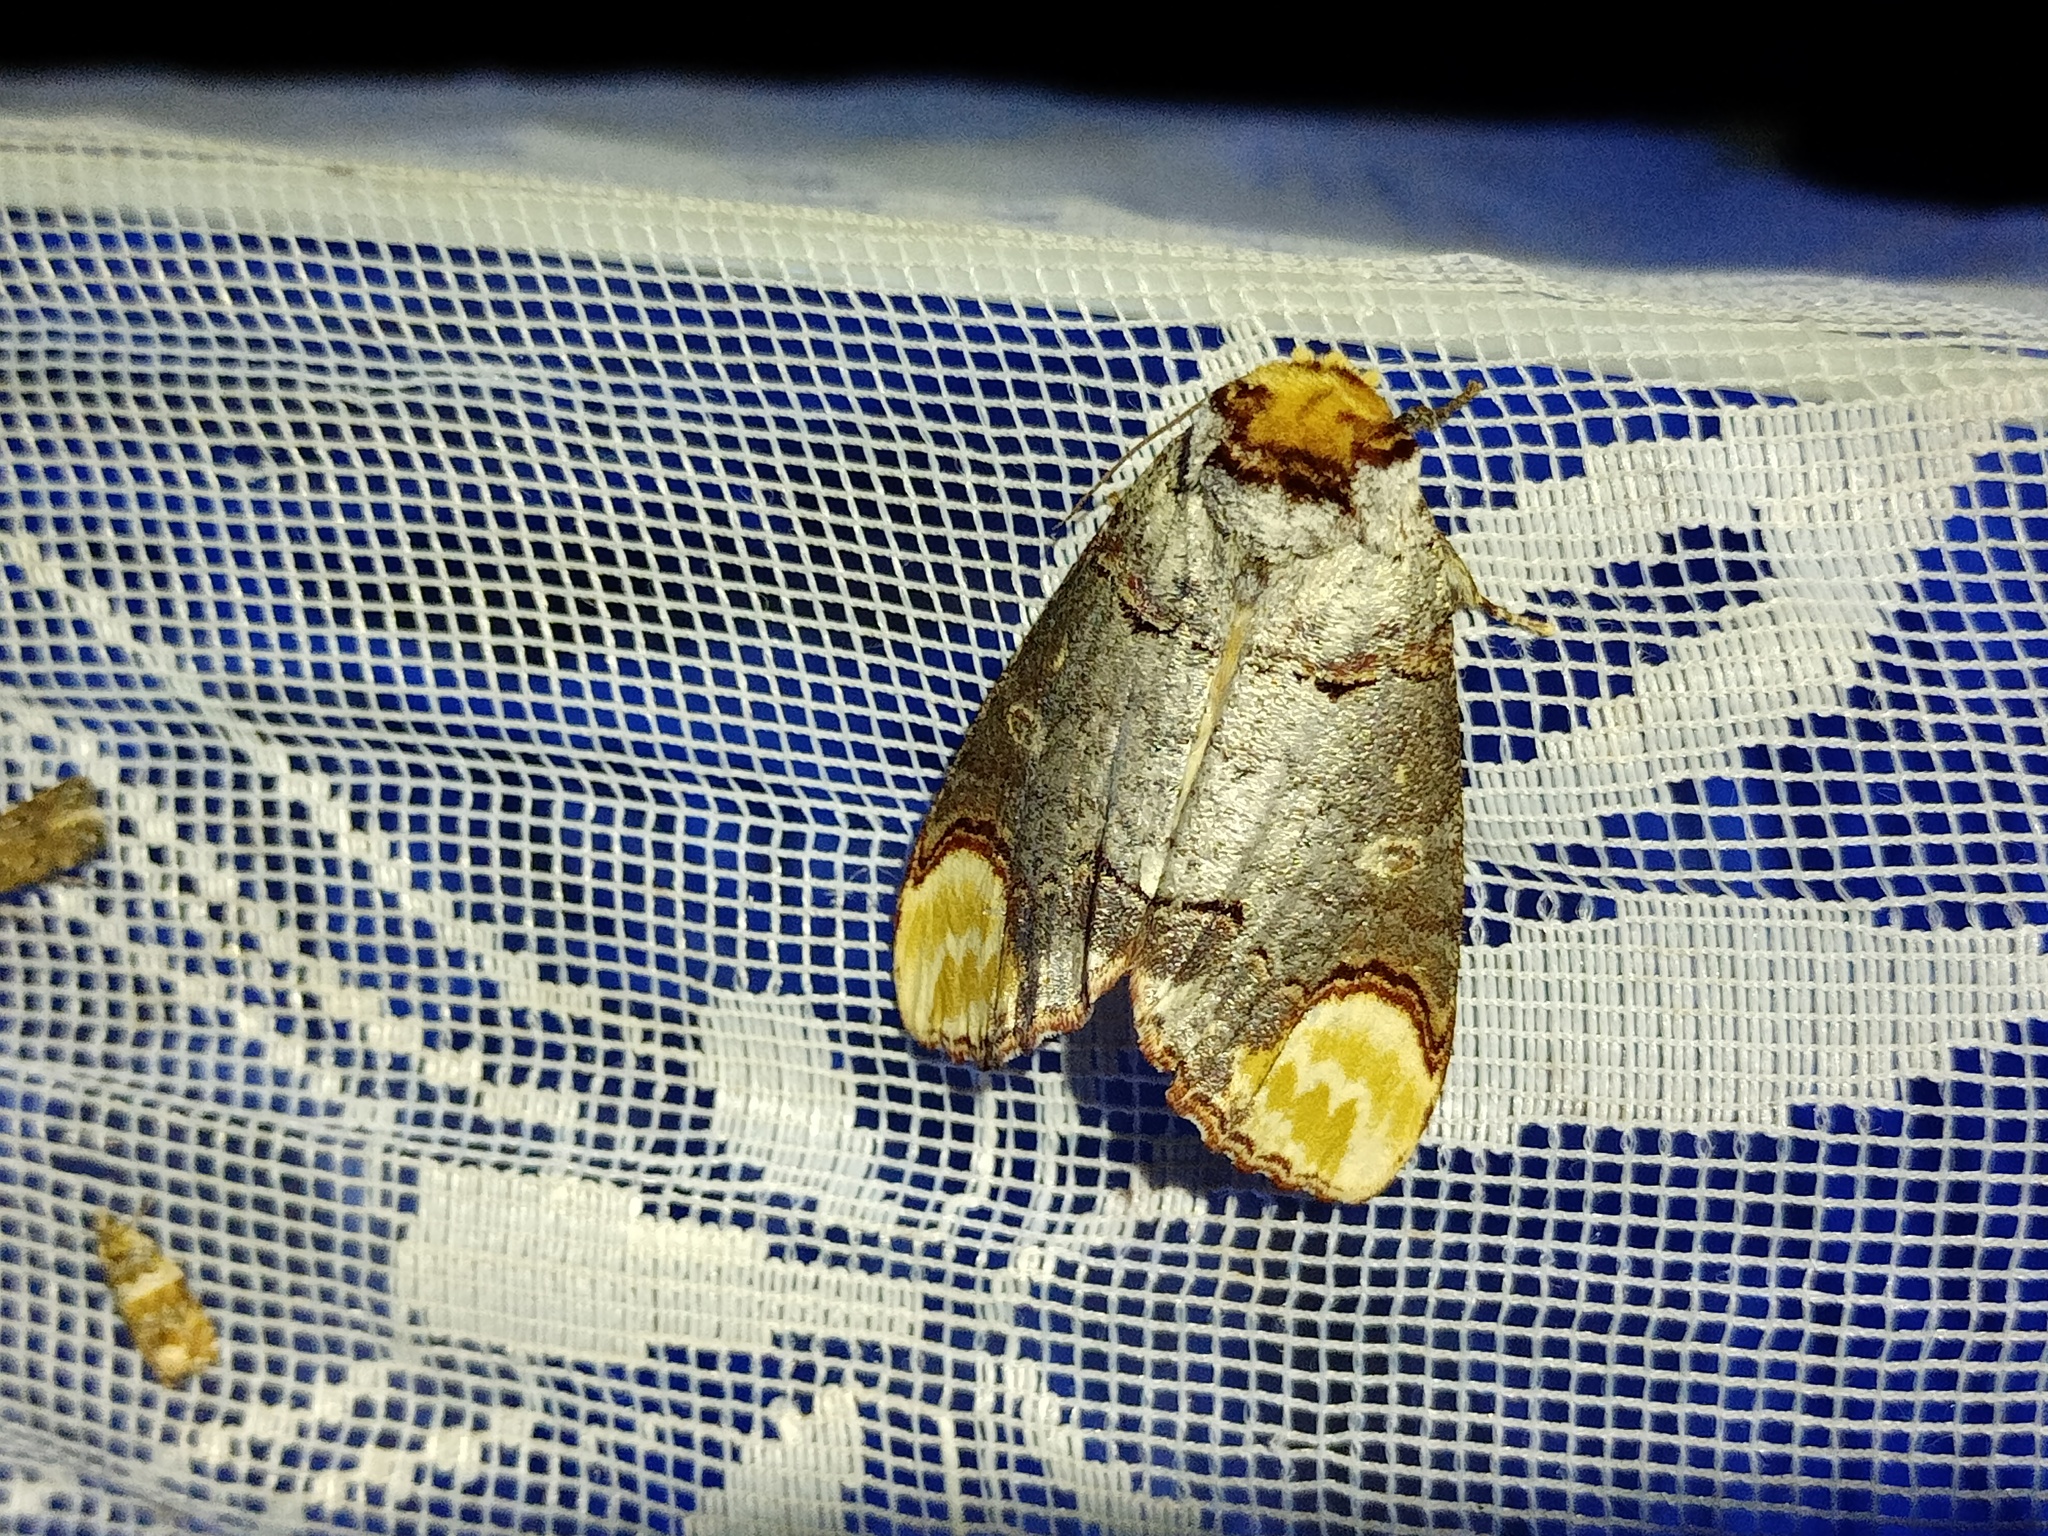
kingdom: Animalia
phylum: Arthropoda
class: Insecta
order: Lepidoptera
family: Notodontidae
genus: Phalera
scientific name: Phalera bucephala
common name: Buff-tip
